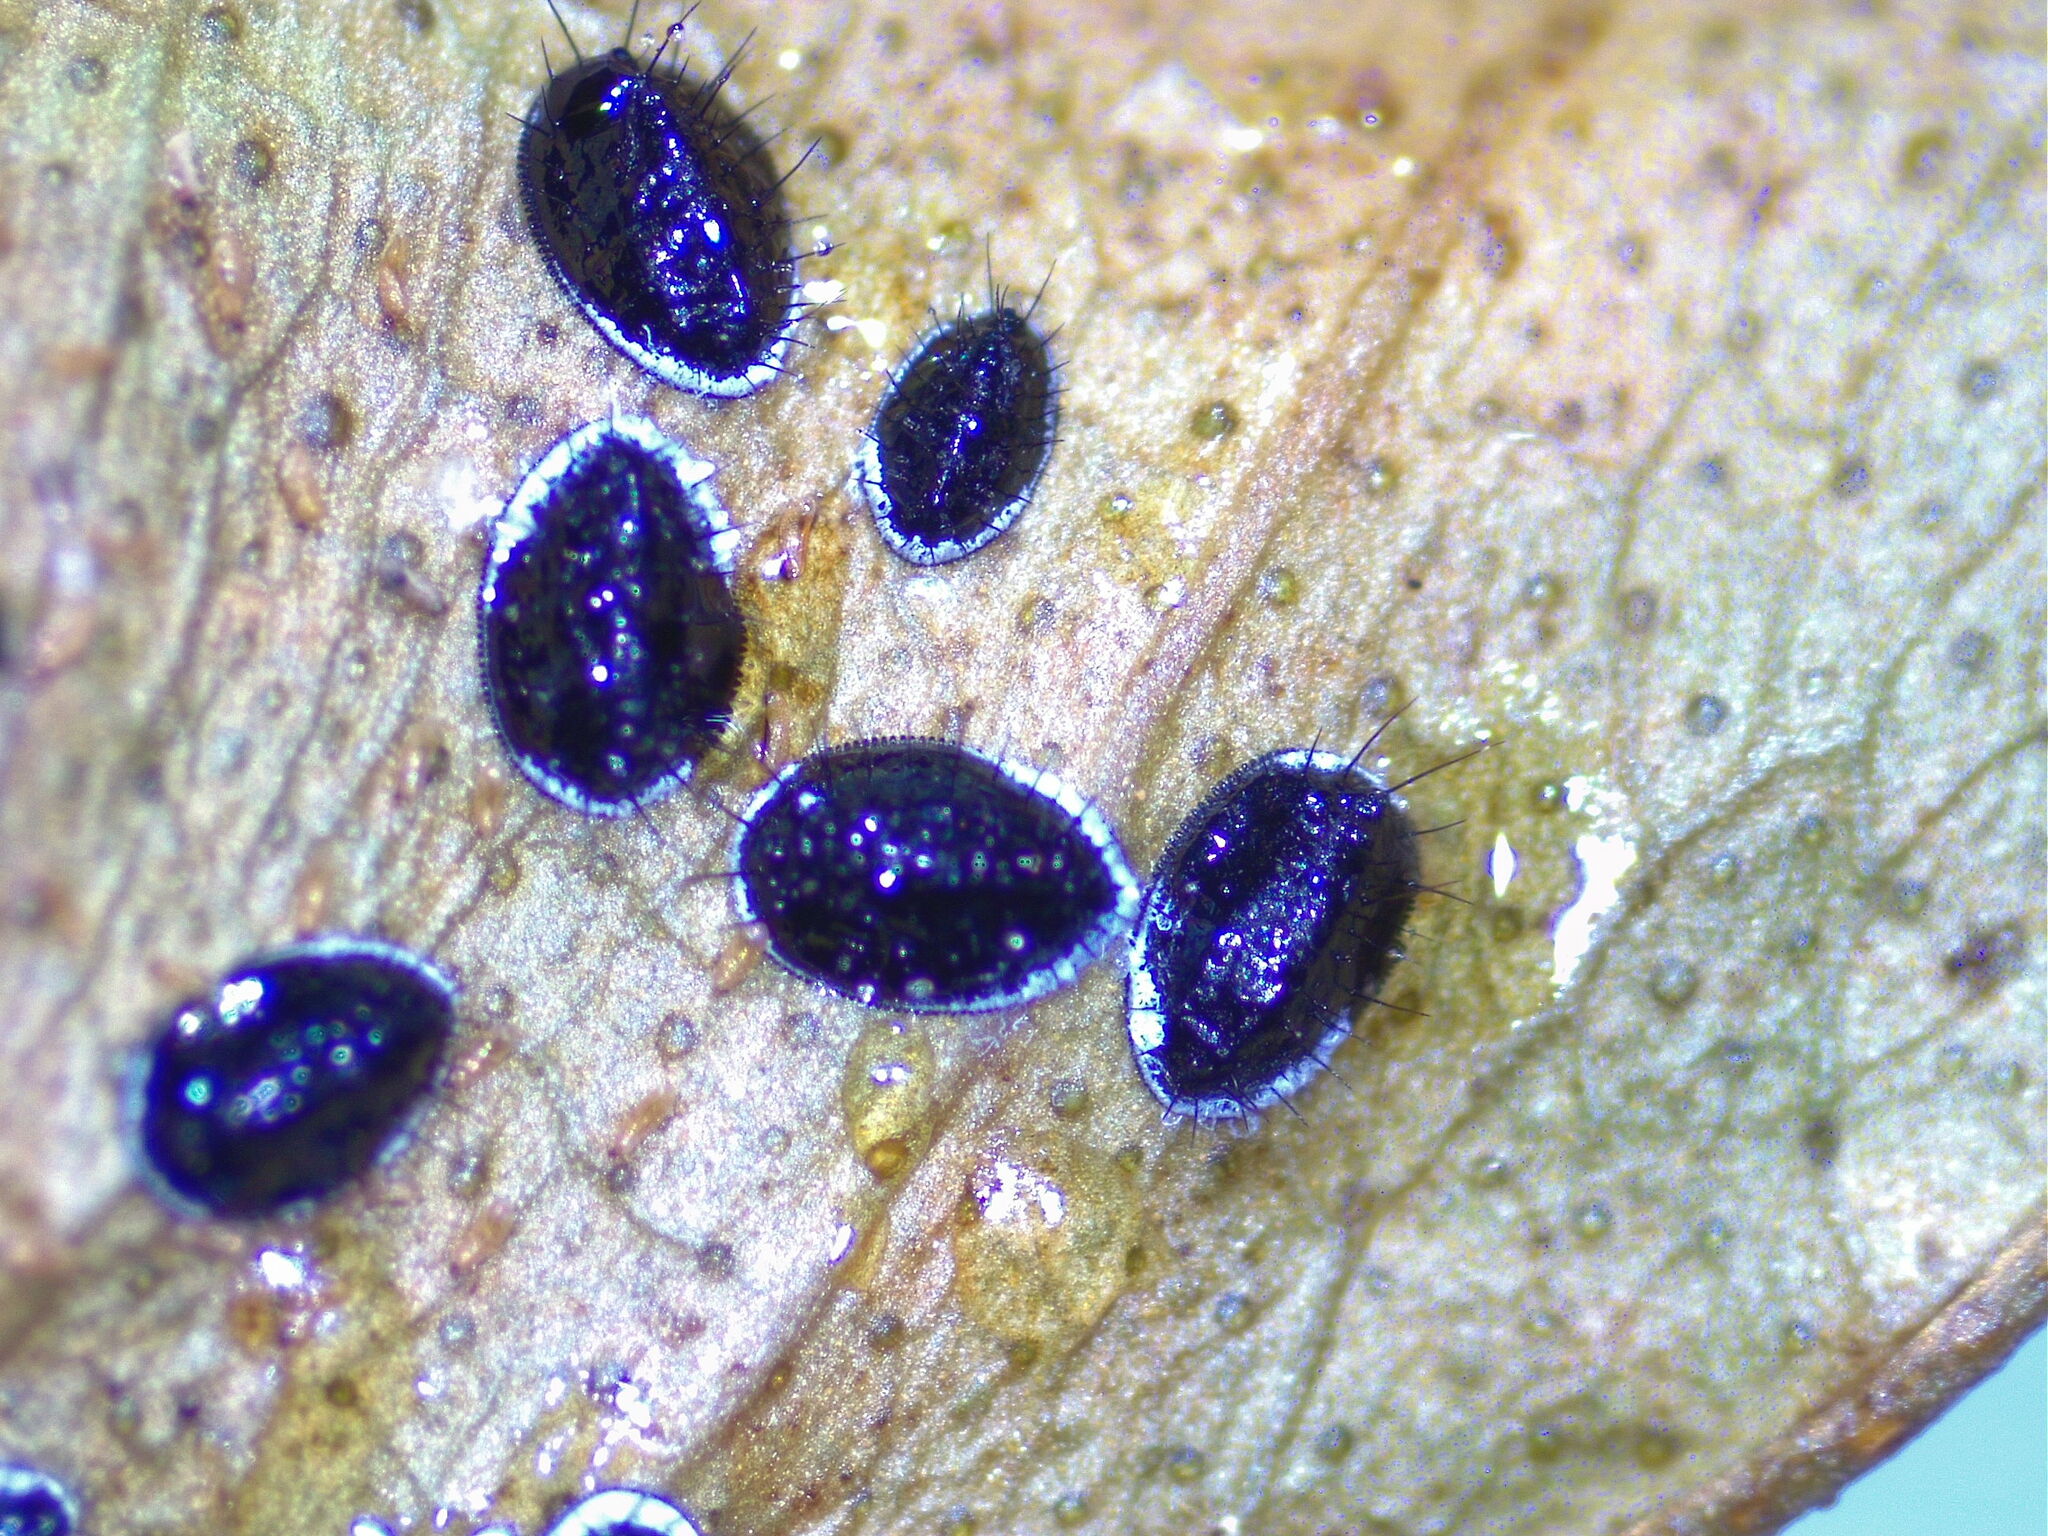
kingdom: Animalia
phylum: Arthropoda
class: Insecta
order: Hemiptera
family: Aleyrodidae
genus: Aleurocanthus
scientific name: Aleurocanthus spiniferus
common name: Orange spiny whitefly
